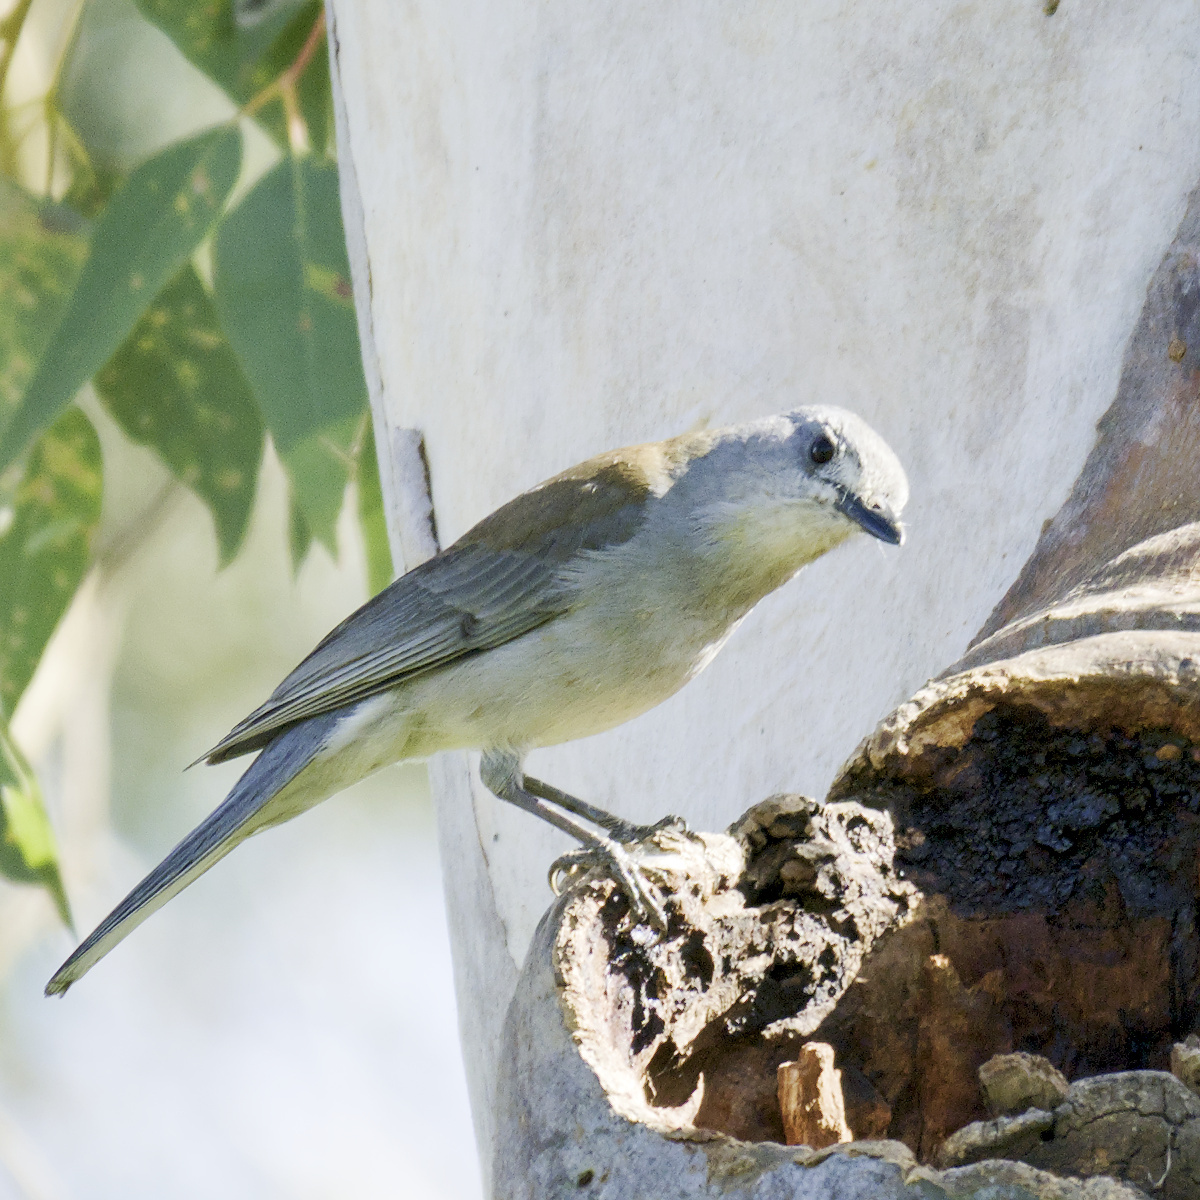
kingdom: Animalia
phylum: Chordata
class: Aves
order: Passeriformes
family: Pachycephalidae
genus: Colluricincla
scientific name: Colluricincla harmonica
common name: Grey shrikethrush
